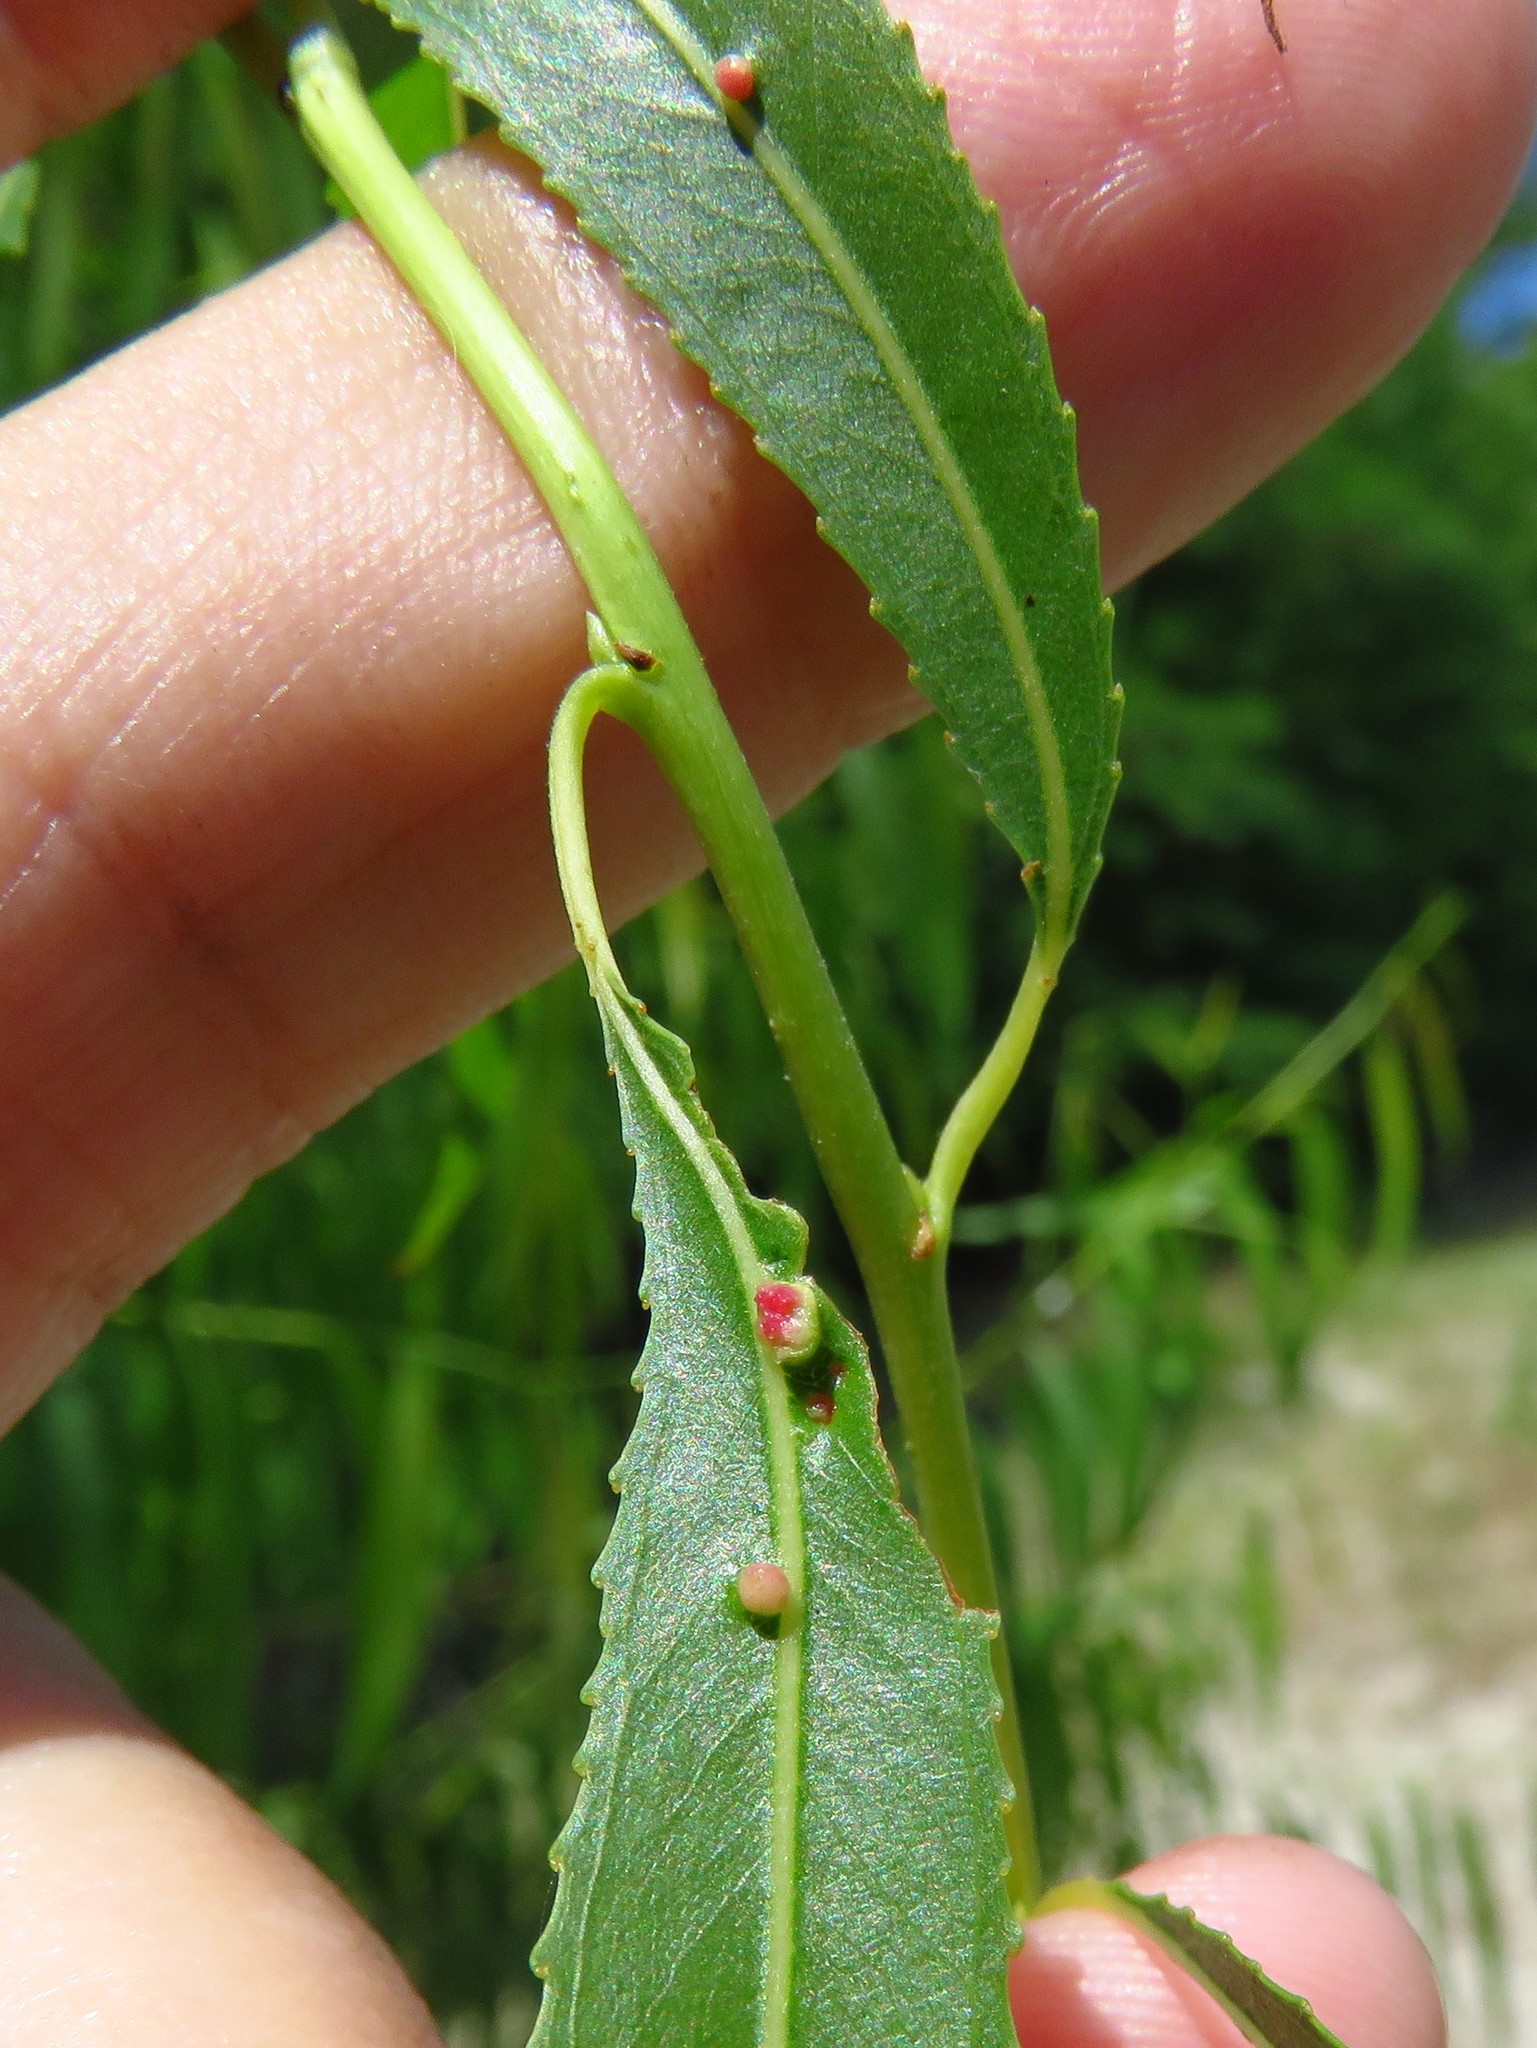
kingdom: Animalia
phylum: Arthropoda
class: Arachnida
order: Trombidiformes
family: Eriophyidae
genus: Aculus
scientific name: Aculus tetanothrix
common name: Willow bead gall mite
